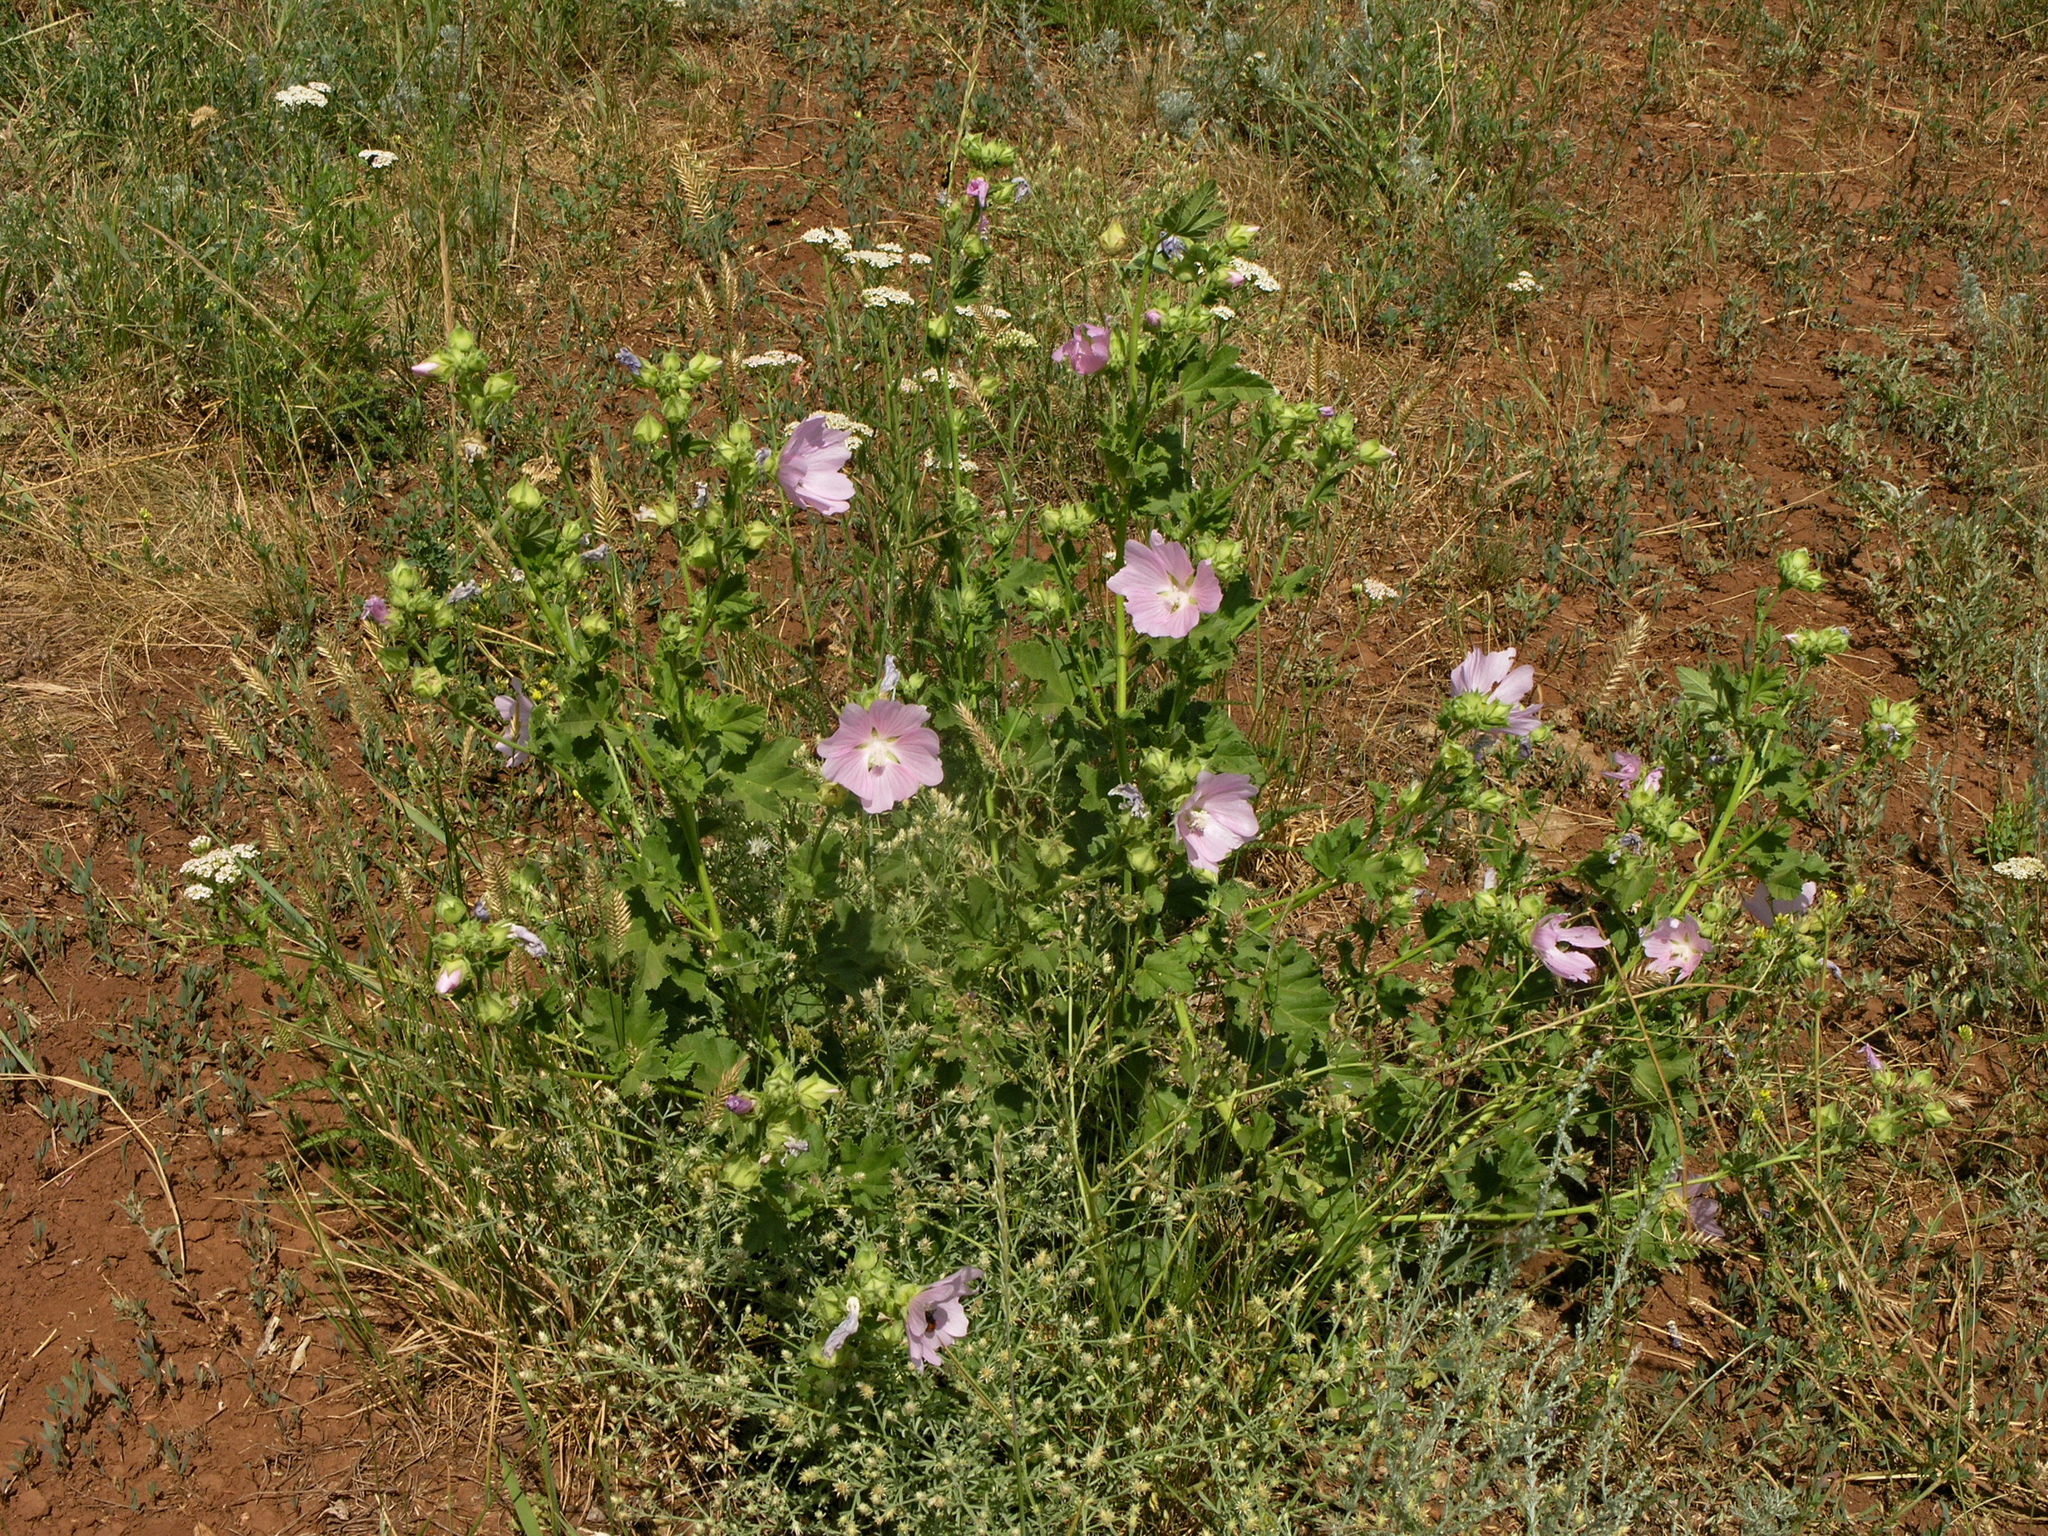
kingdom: Plantae
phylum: Tracheophyta
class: Magnoliopsida
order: Malvales
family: Malvaceae
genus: Malva
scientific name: Malva thuringiaca
